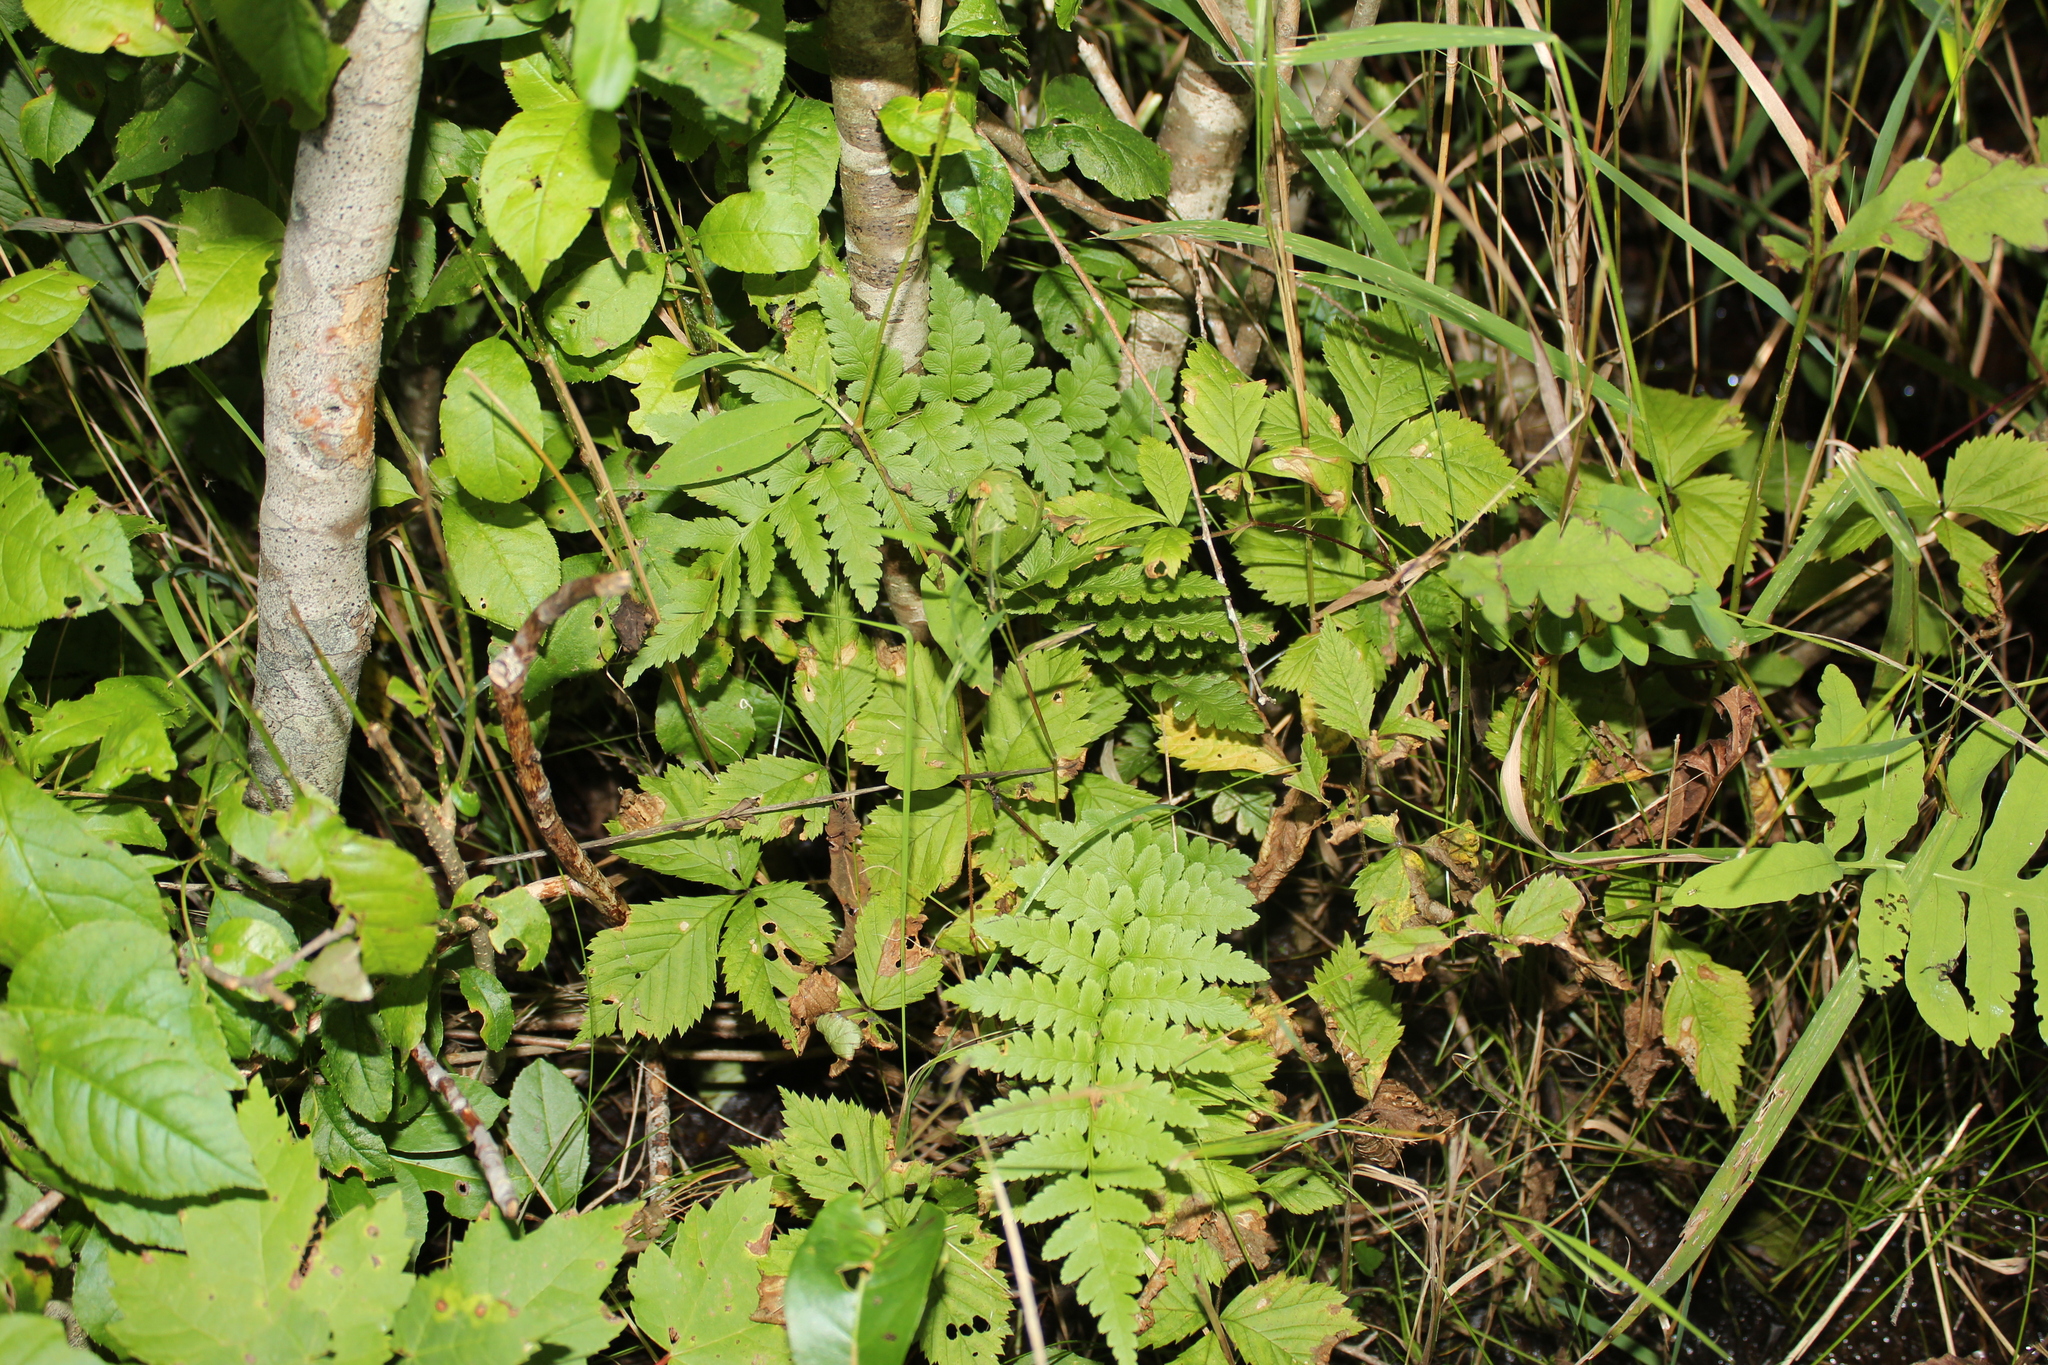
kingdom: Plantae
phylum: Tracheophyta
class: Polypodiopsida
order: Polypodiales
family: Dryopteridaceae
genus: Dryopteris
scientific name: Dryopteris cristata
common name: Crested wood fern
